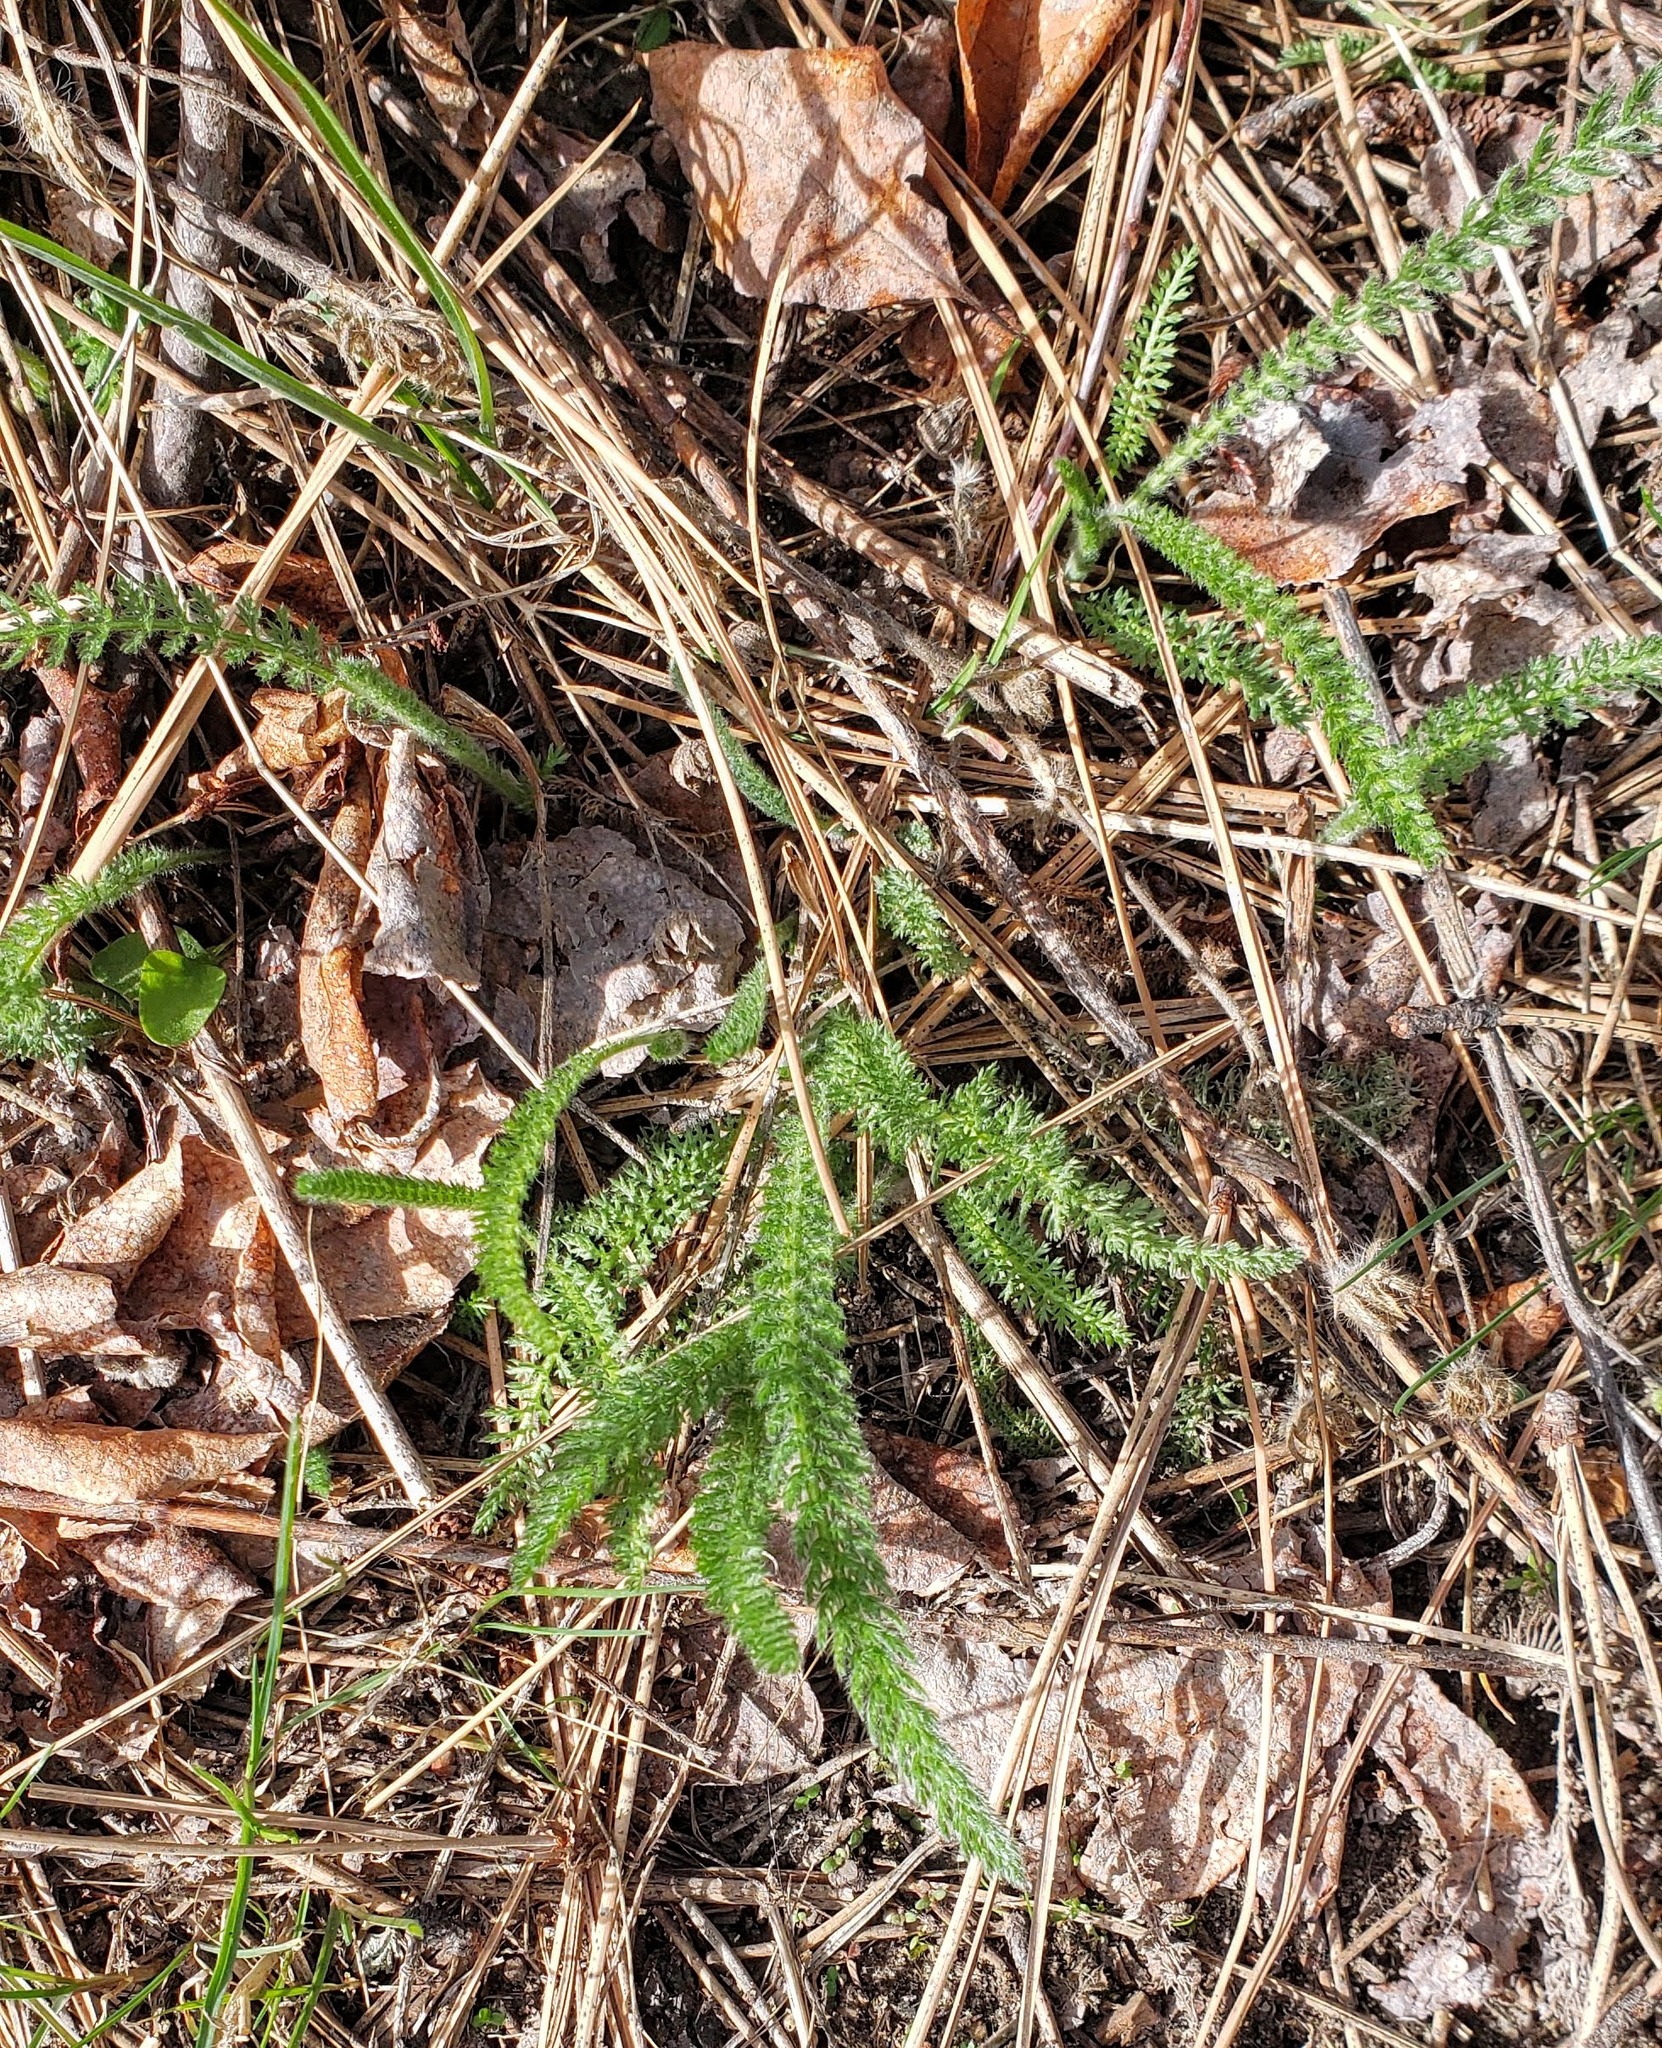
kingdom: Plantae
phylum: Tracheophyta
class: Magnoliopsida
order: Asterales
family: Asteraceae
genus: Achillea
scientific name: Achillea millefolium
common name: Yarrow
